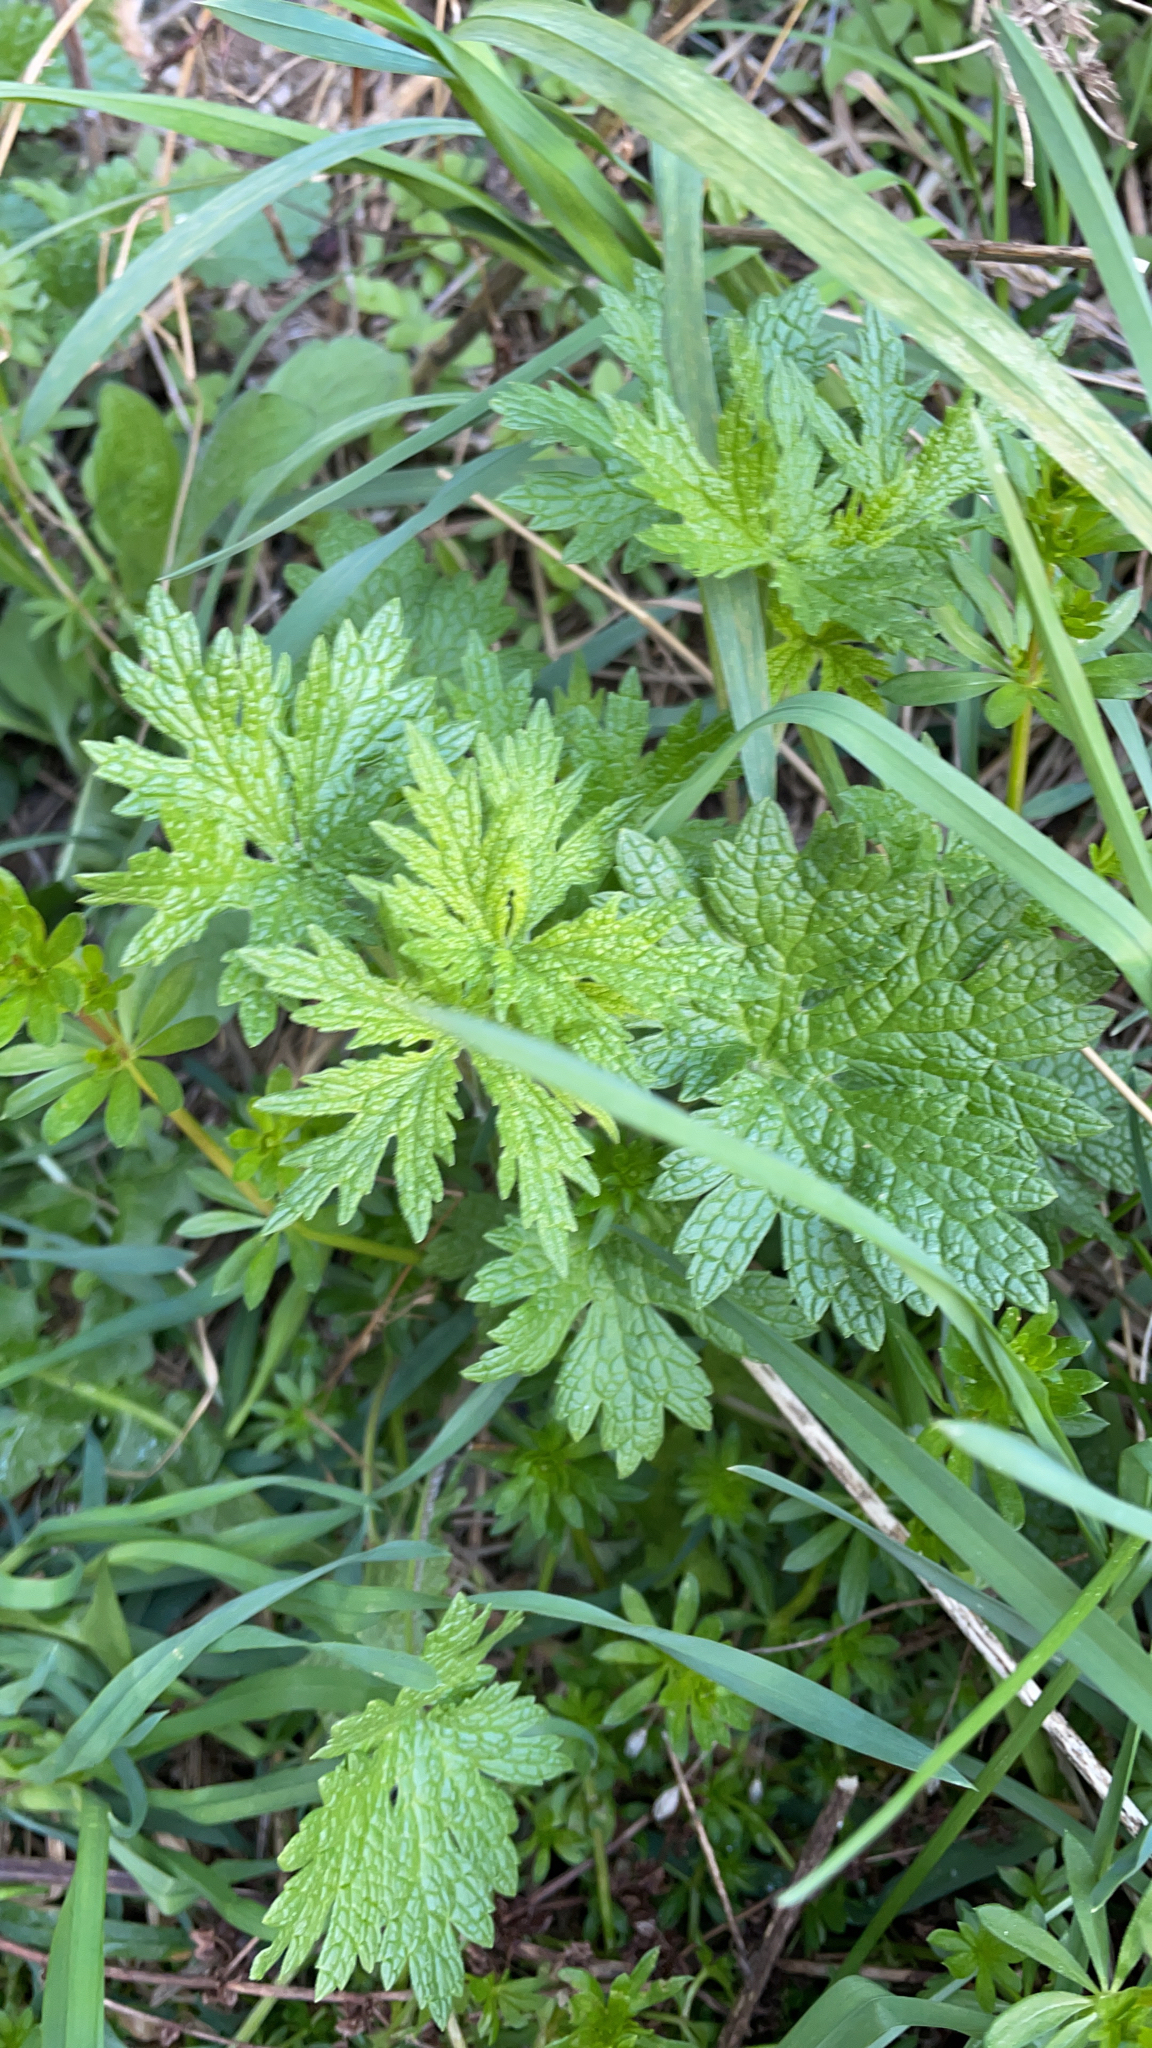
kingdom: Plantae
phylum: Tracheophyta
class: Magnoliopsida
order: Lamiales
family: Lamiaceae
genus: Leonurus
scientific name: Leonurus cardiaca
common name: Motherwort
